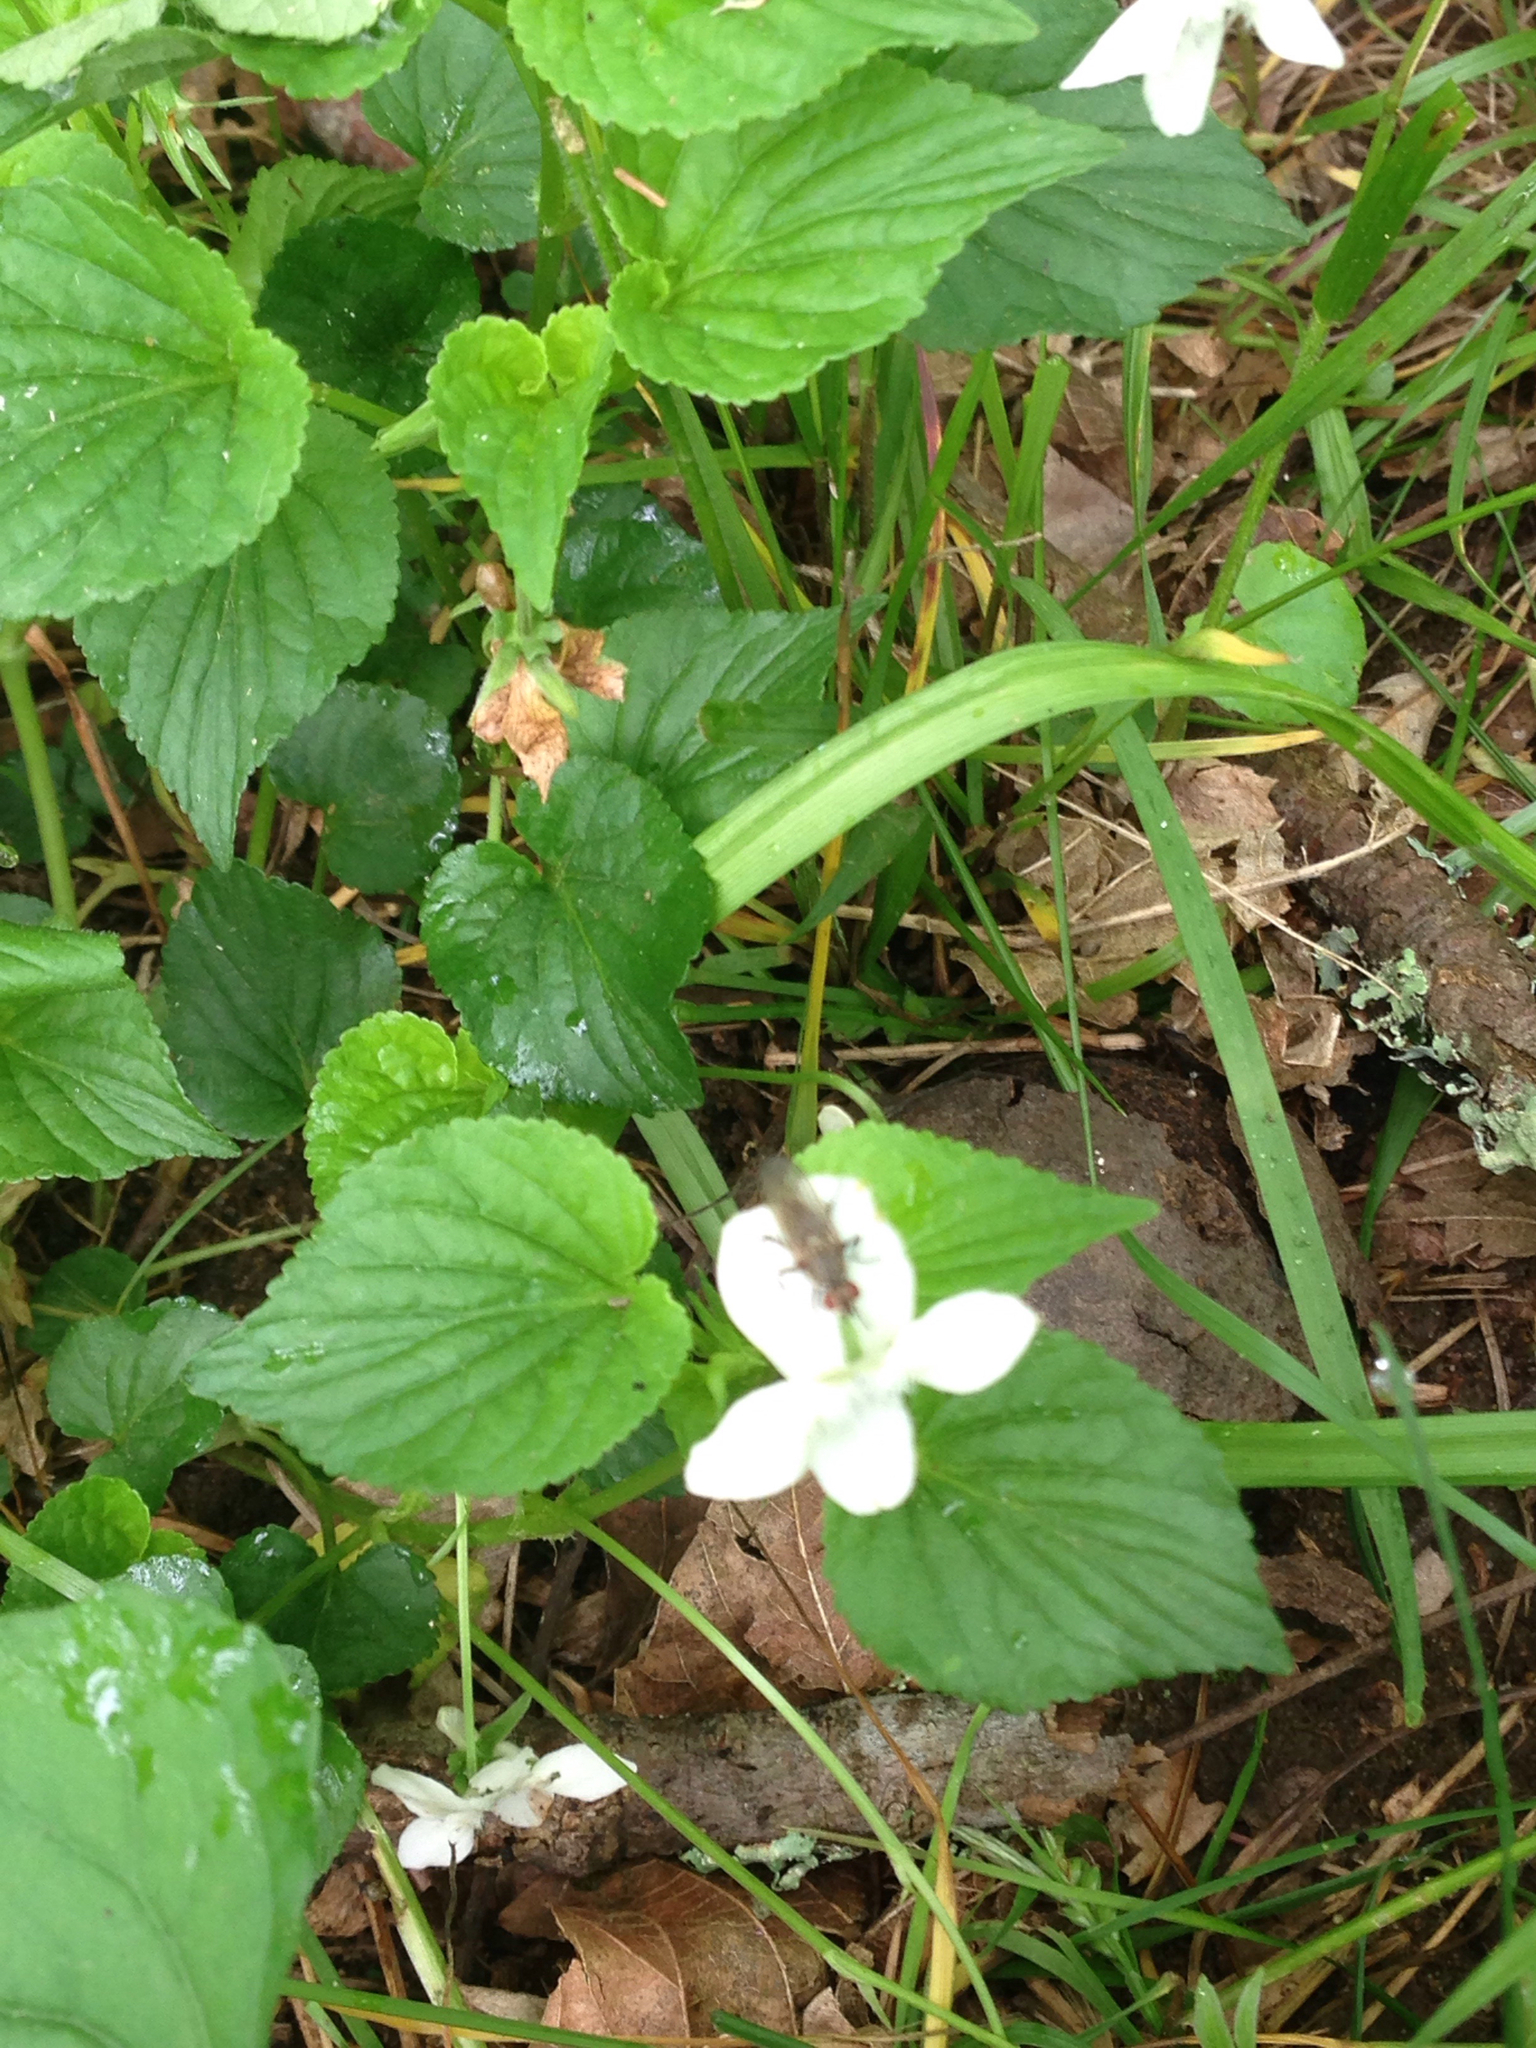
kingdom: Plantae
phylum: Tracheophyta
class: Magnoliopsida
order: Malpighiales
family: Violaceae
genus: Viola
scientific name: Viola striata
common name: Cream violet
